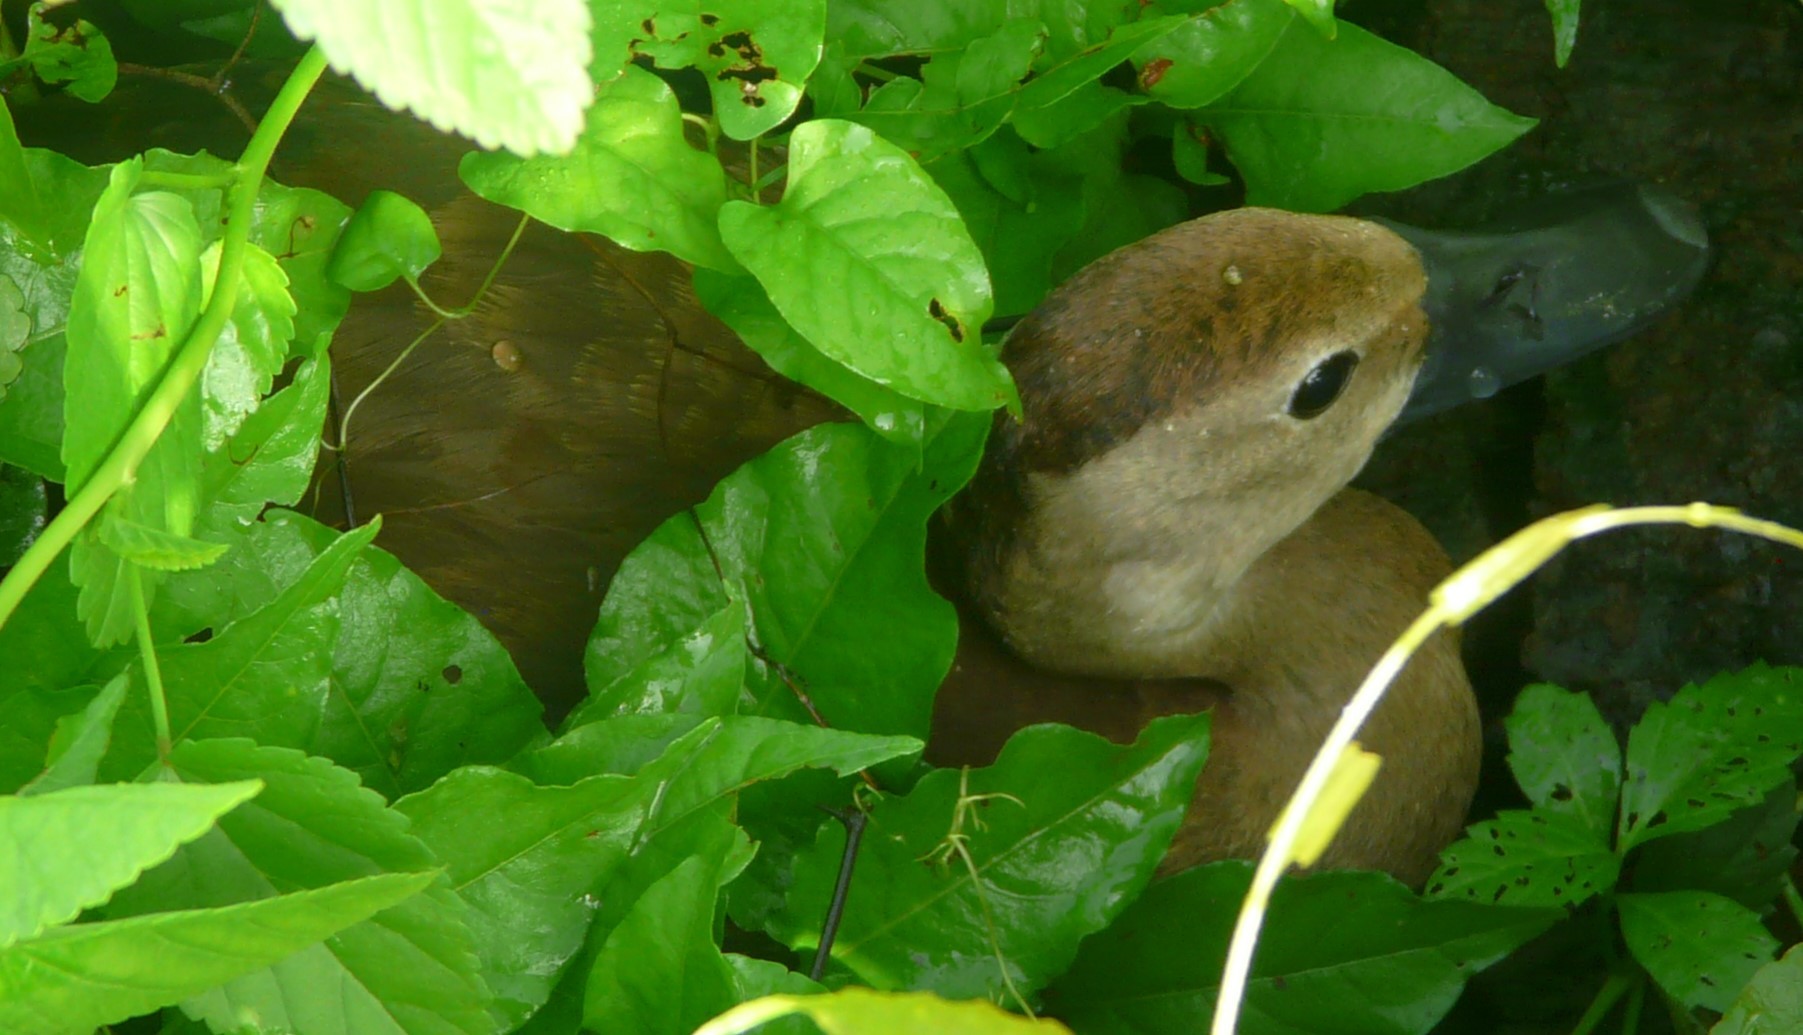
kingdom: Animalia
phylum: Chordata
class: Aves
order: Anseriformes
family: Anatidae
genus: Dendrocygna
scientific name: Dendrocygna autumnalis
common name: Black-bellied whistling duck
